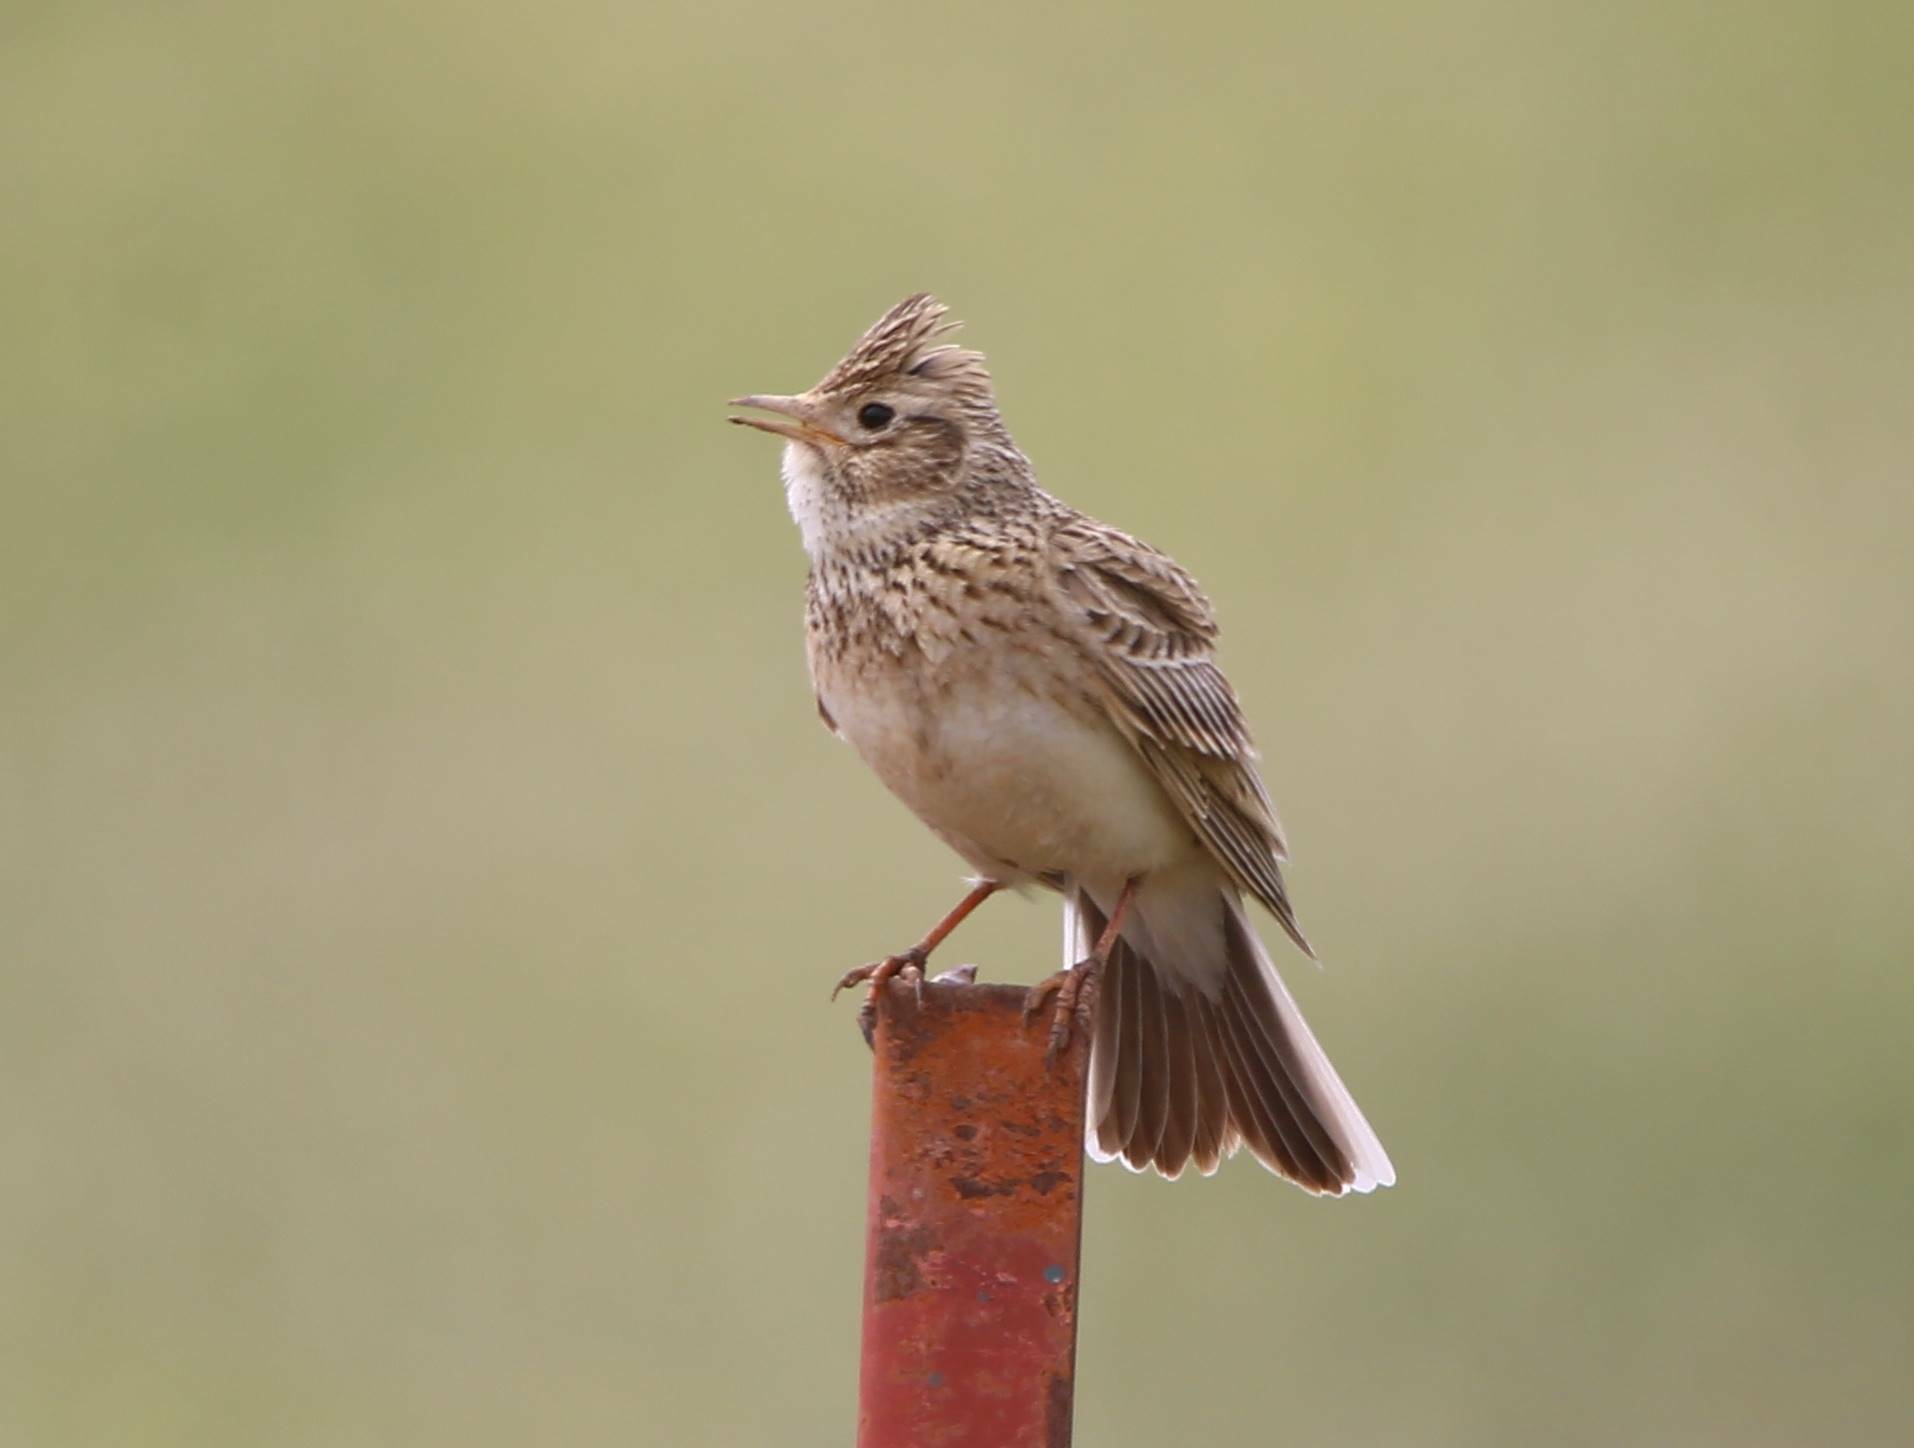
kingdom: Animalia
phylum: Chordata
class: Aves
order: Passeriformes
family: Alaudidae
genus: Alauda
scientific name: Alauda arvensis
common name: Eurasian skylark
